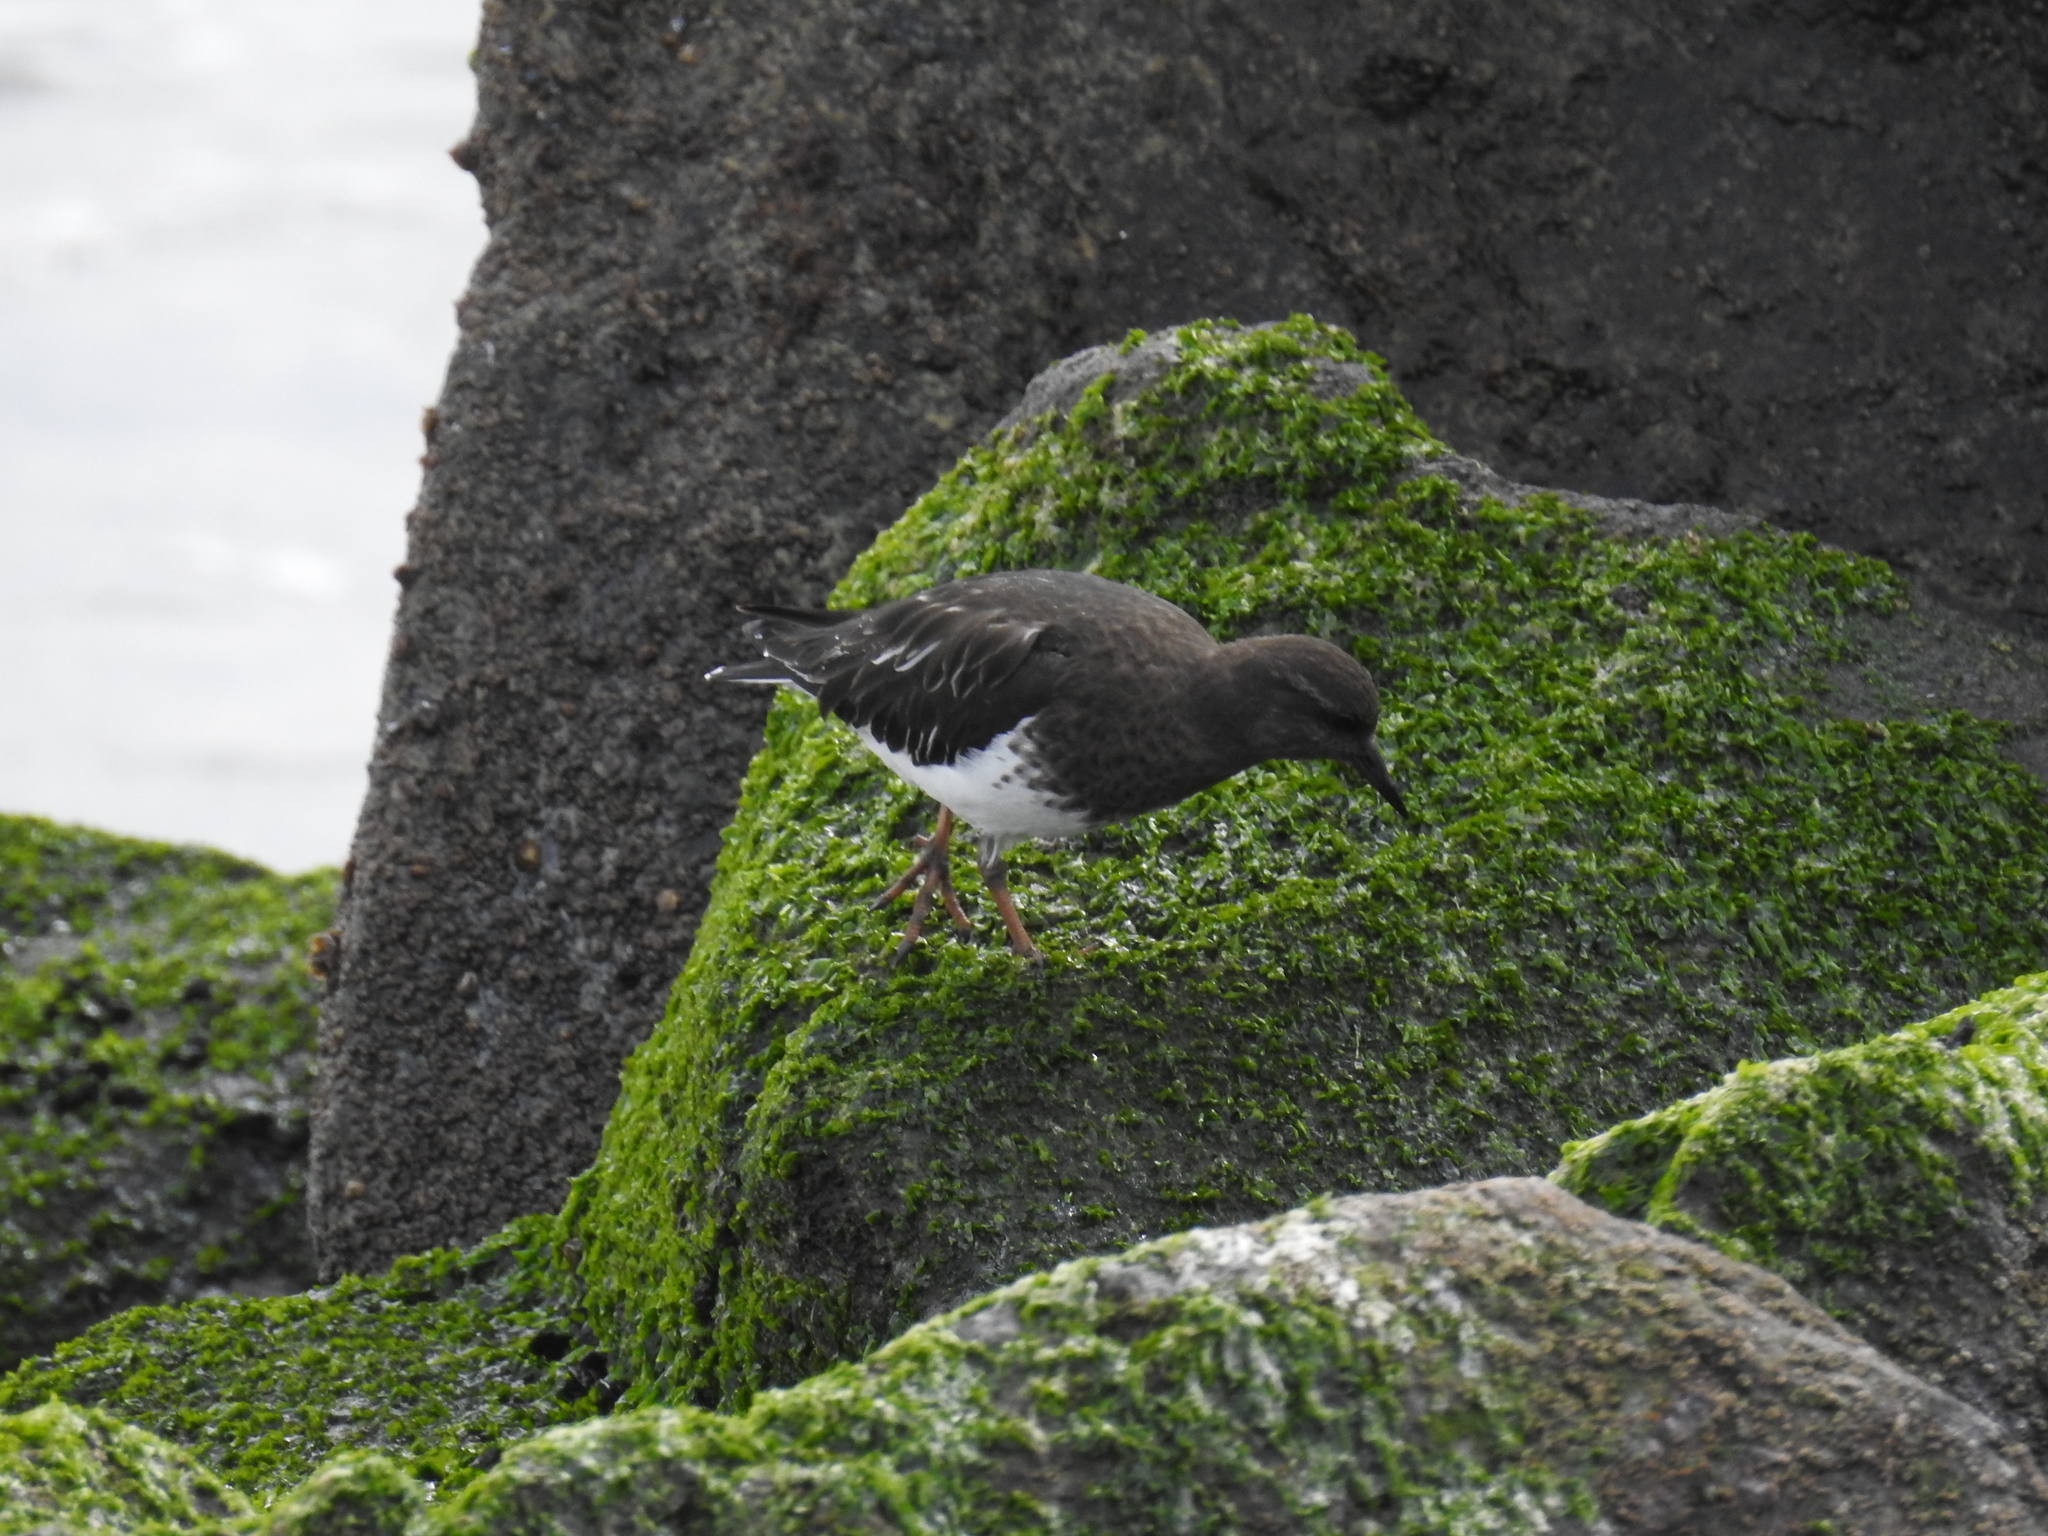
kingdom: Animalia
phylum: Chordata
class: Aves
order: Charadriiformes
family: Scolopacidae
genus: Arenaria
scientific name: Arenaria melanocephala
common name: Black turnstone
